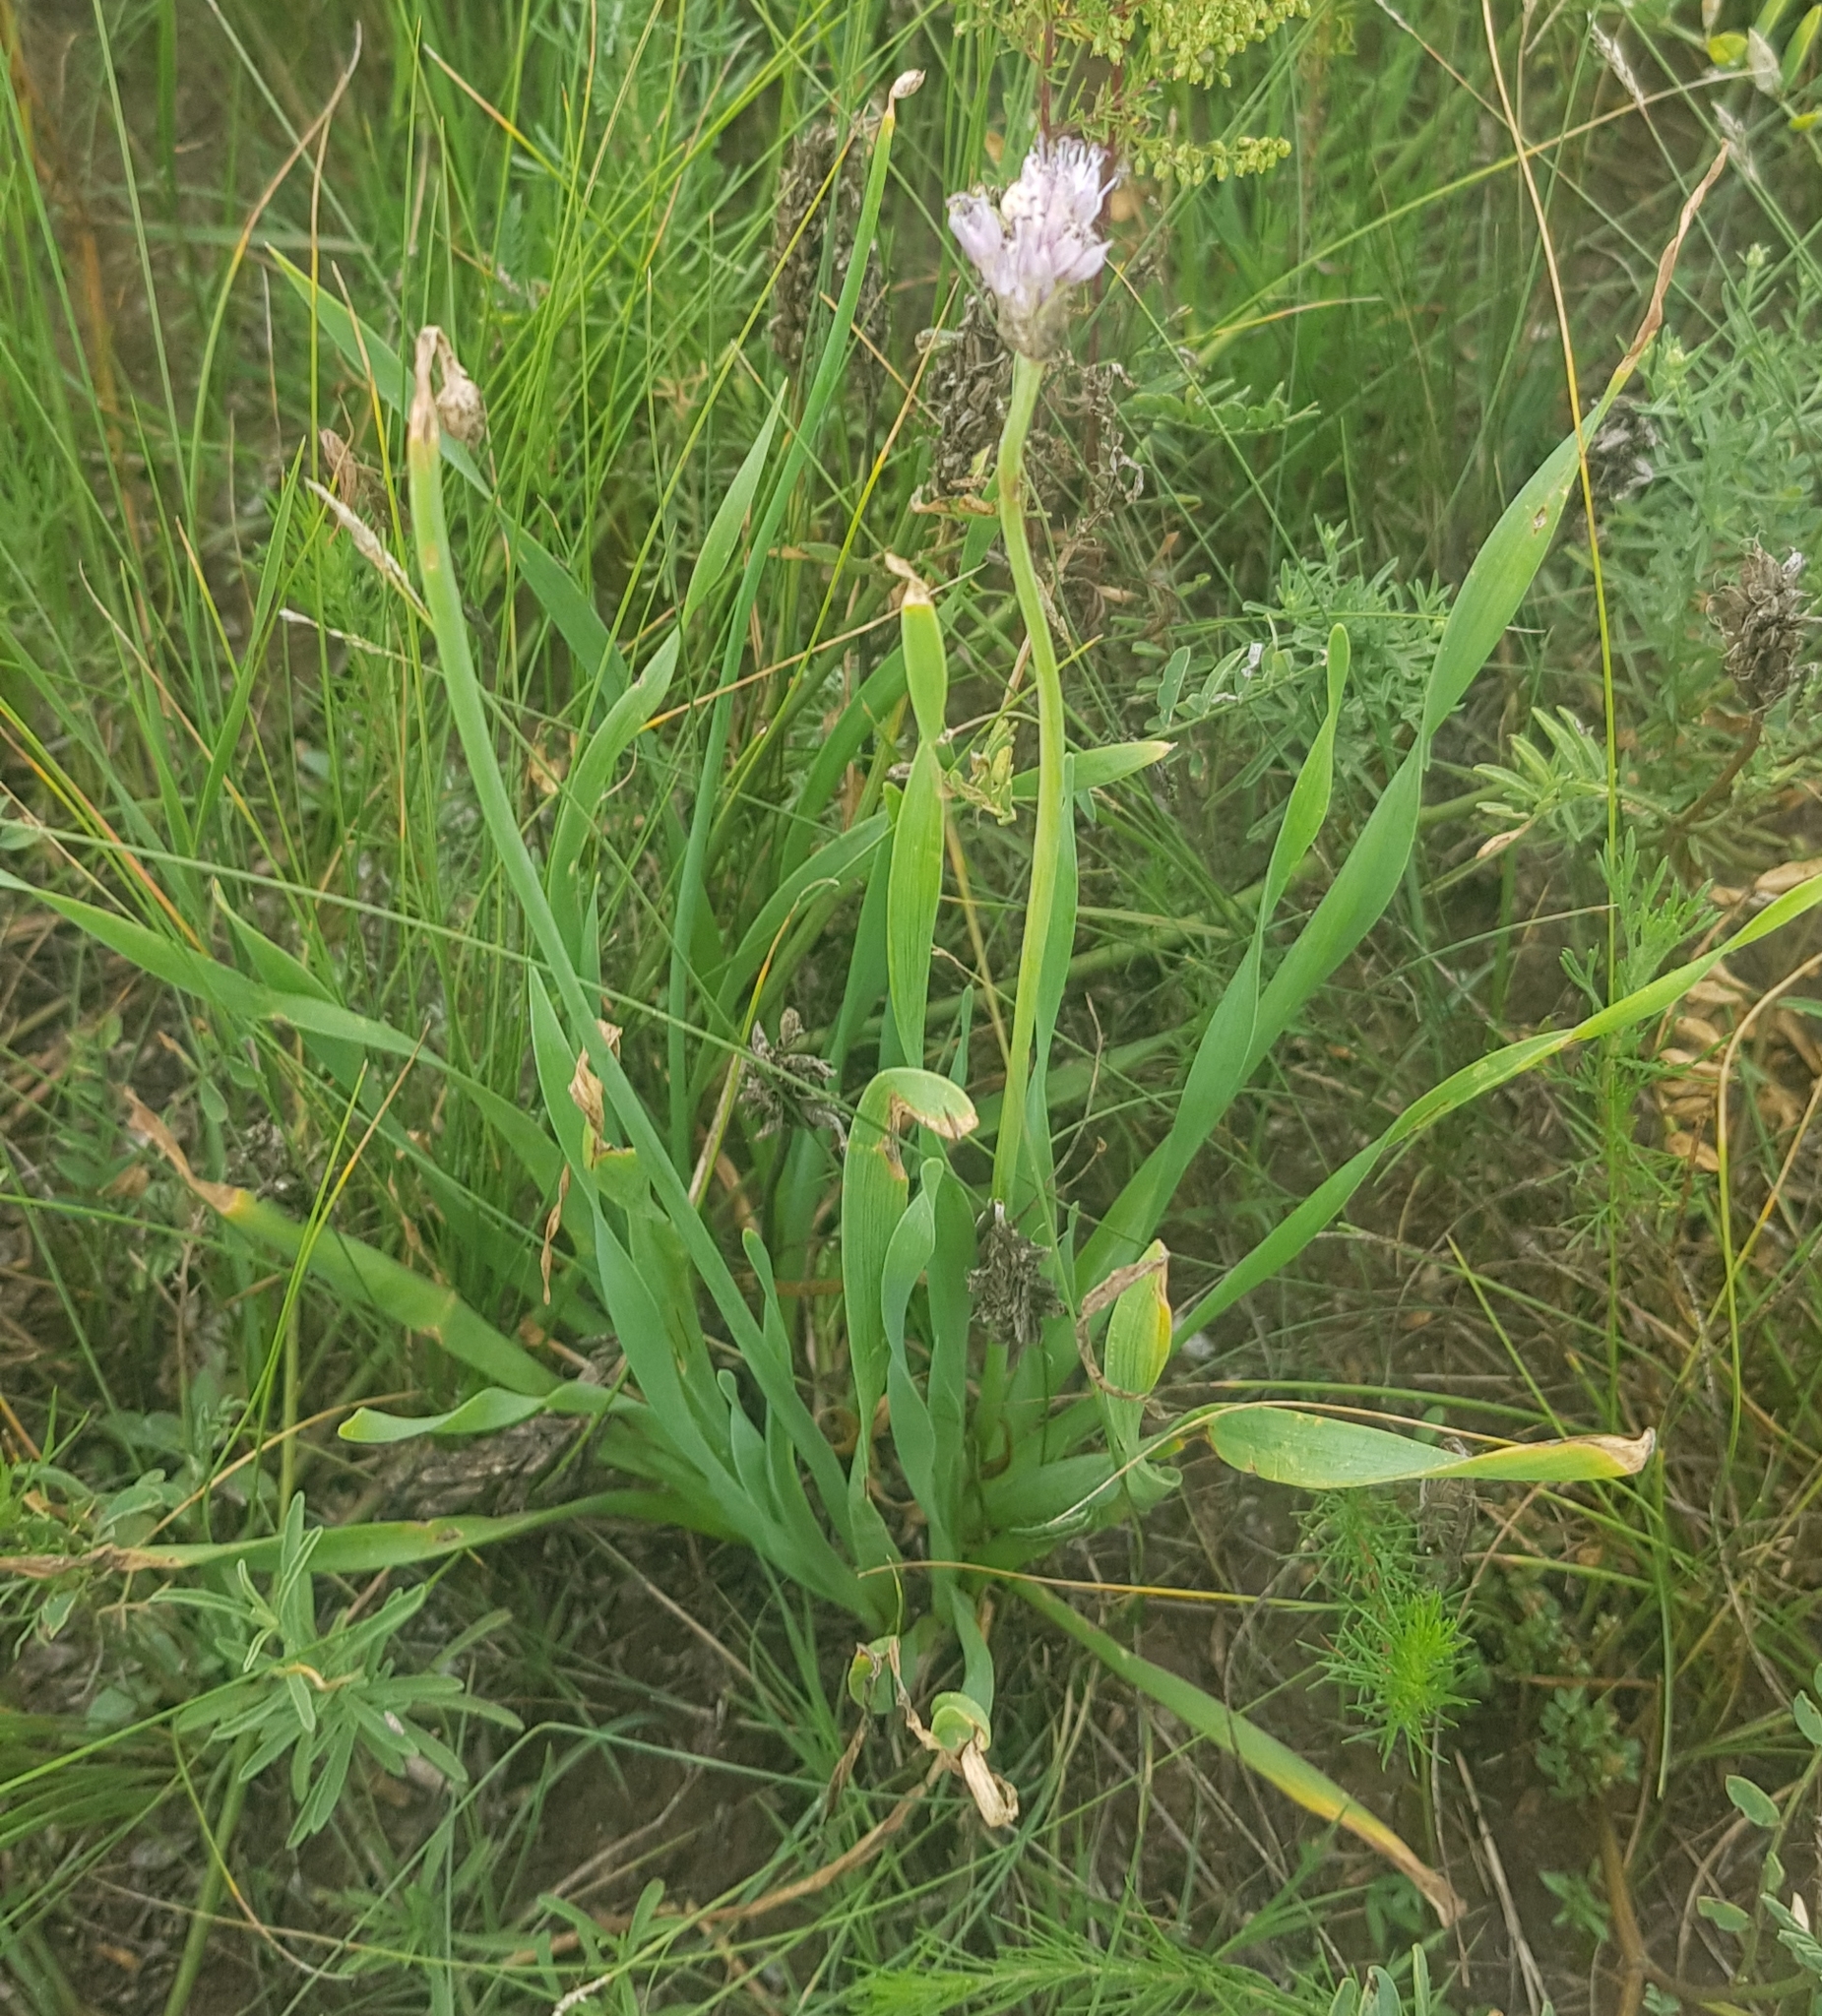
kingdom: Plantae
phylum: Tracheophyta
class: Liliopsida
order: Asparagales
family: Amaryllidaceae
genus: Allium
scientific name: Allium senescens
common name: German garlic
